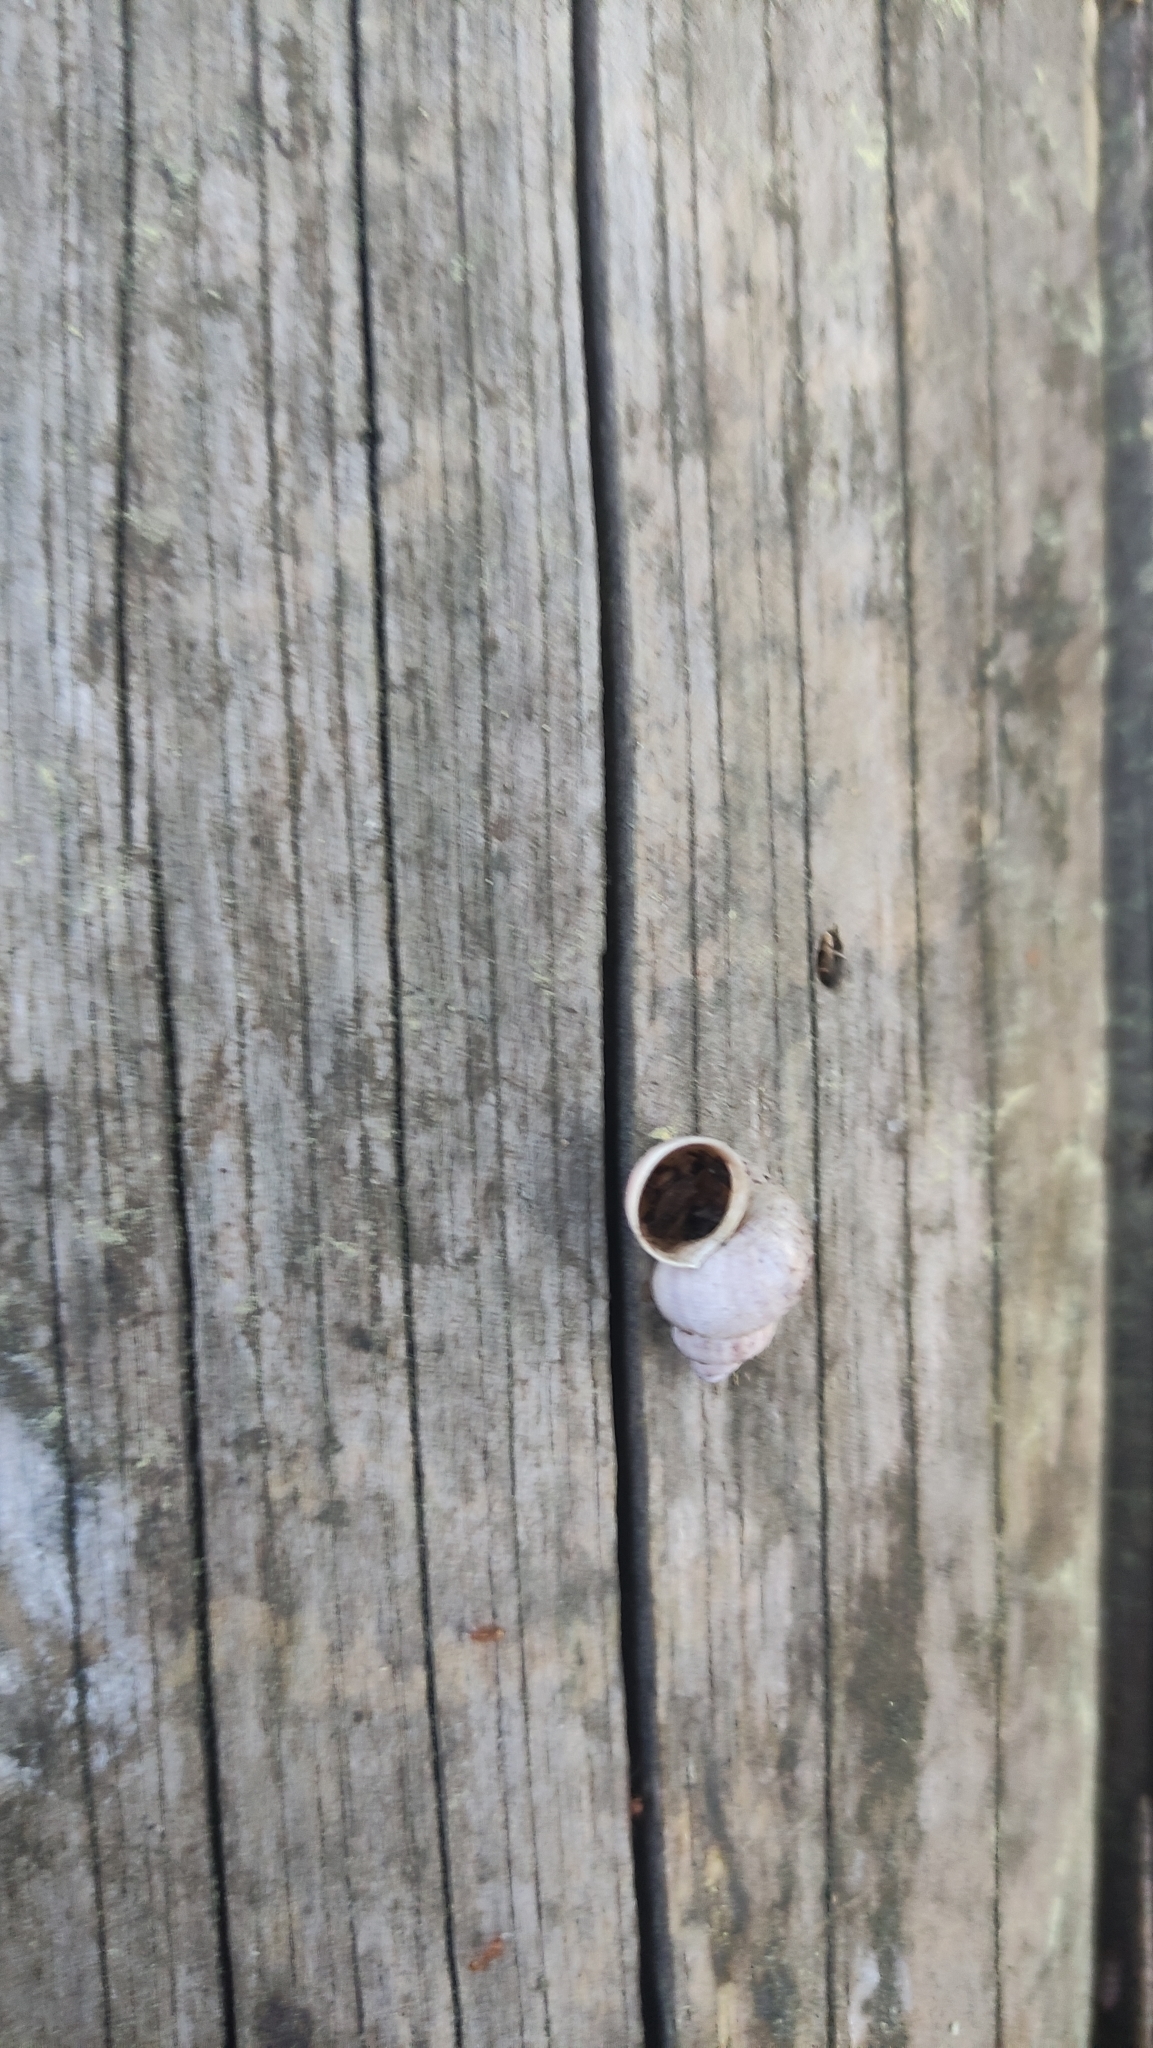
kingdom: Animalia
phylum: Mollusca
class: Gastropoda
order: Littorinimorpha
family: Pomatiidae
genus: Pomatias
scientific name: Pomatias elegans
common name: Red-mouthed snail
